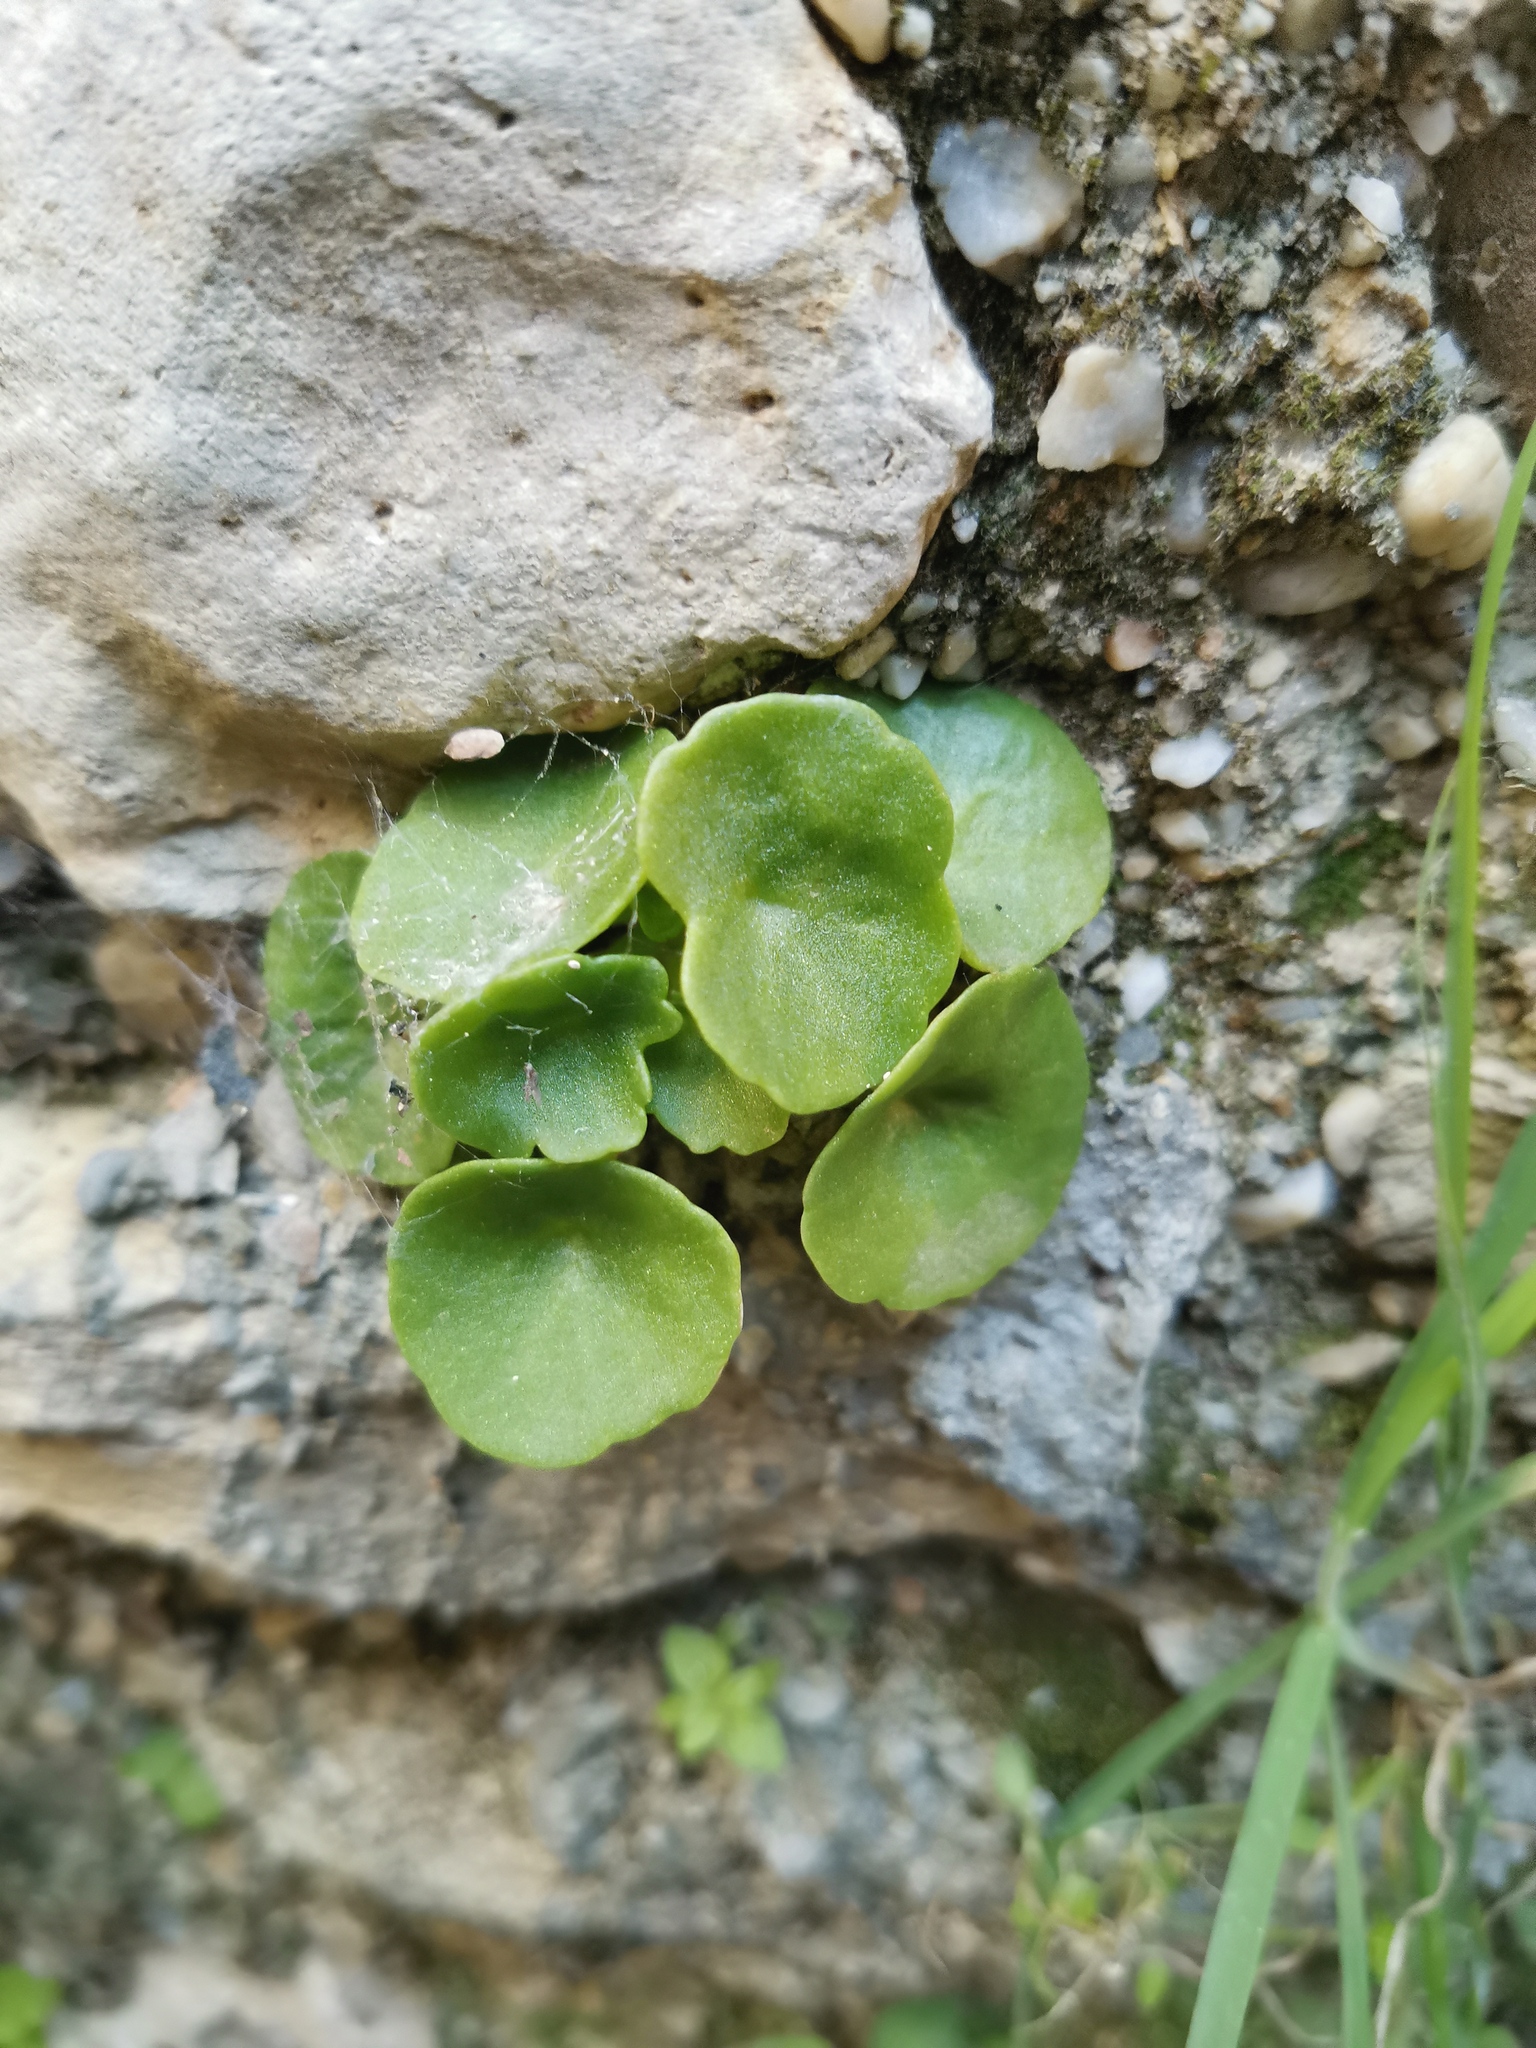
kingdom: Plantae
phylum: Tracheophyta
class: Magnoliopsida
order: Saxifragales
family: Crassulaceae
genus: Umbilicus
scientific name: Umbilicus rupestris
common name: Navelwort
